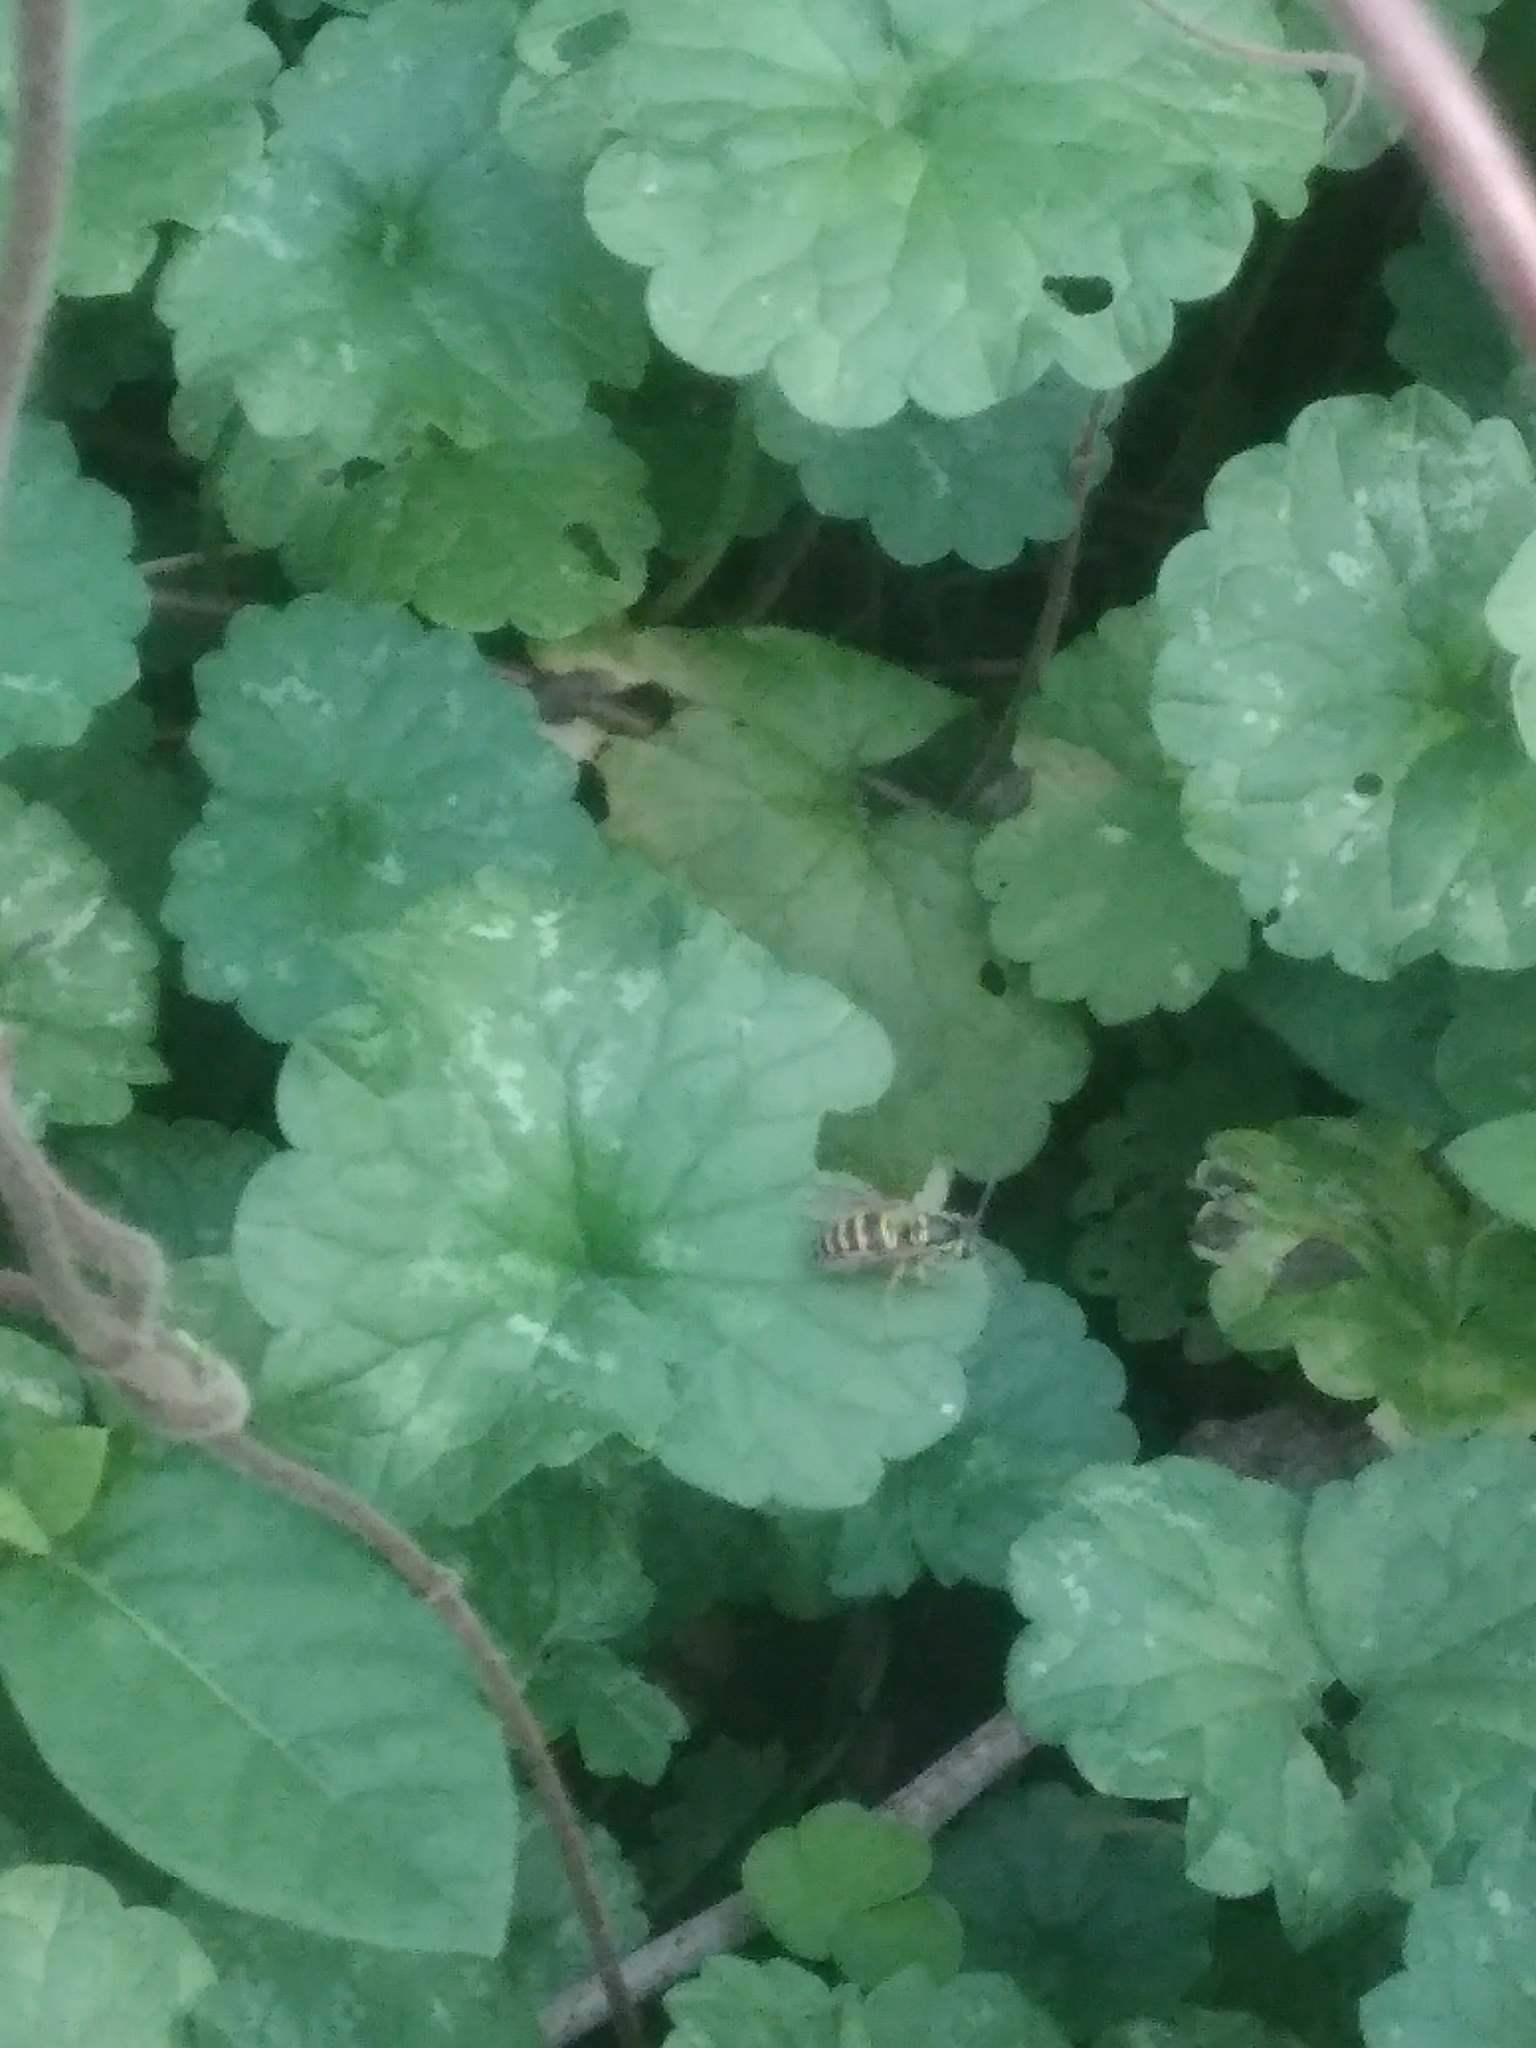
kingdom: Animalia
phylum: Arthropoda
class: Insecta
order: Hymenoptera
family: Vespidae
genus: Vespula
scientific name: Vespula maculifrons
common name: Eastern yellowjacket
